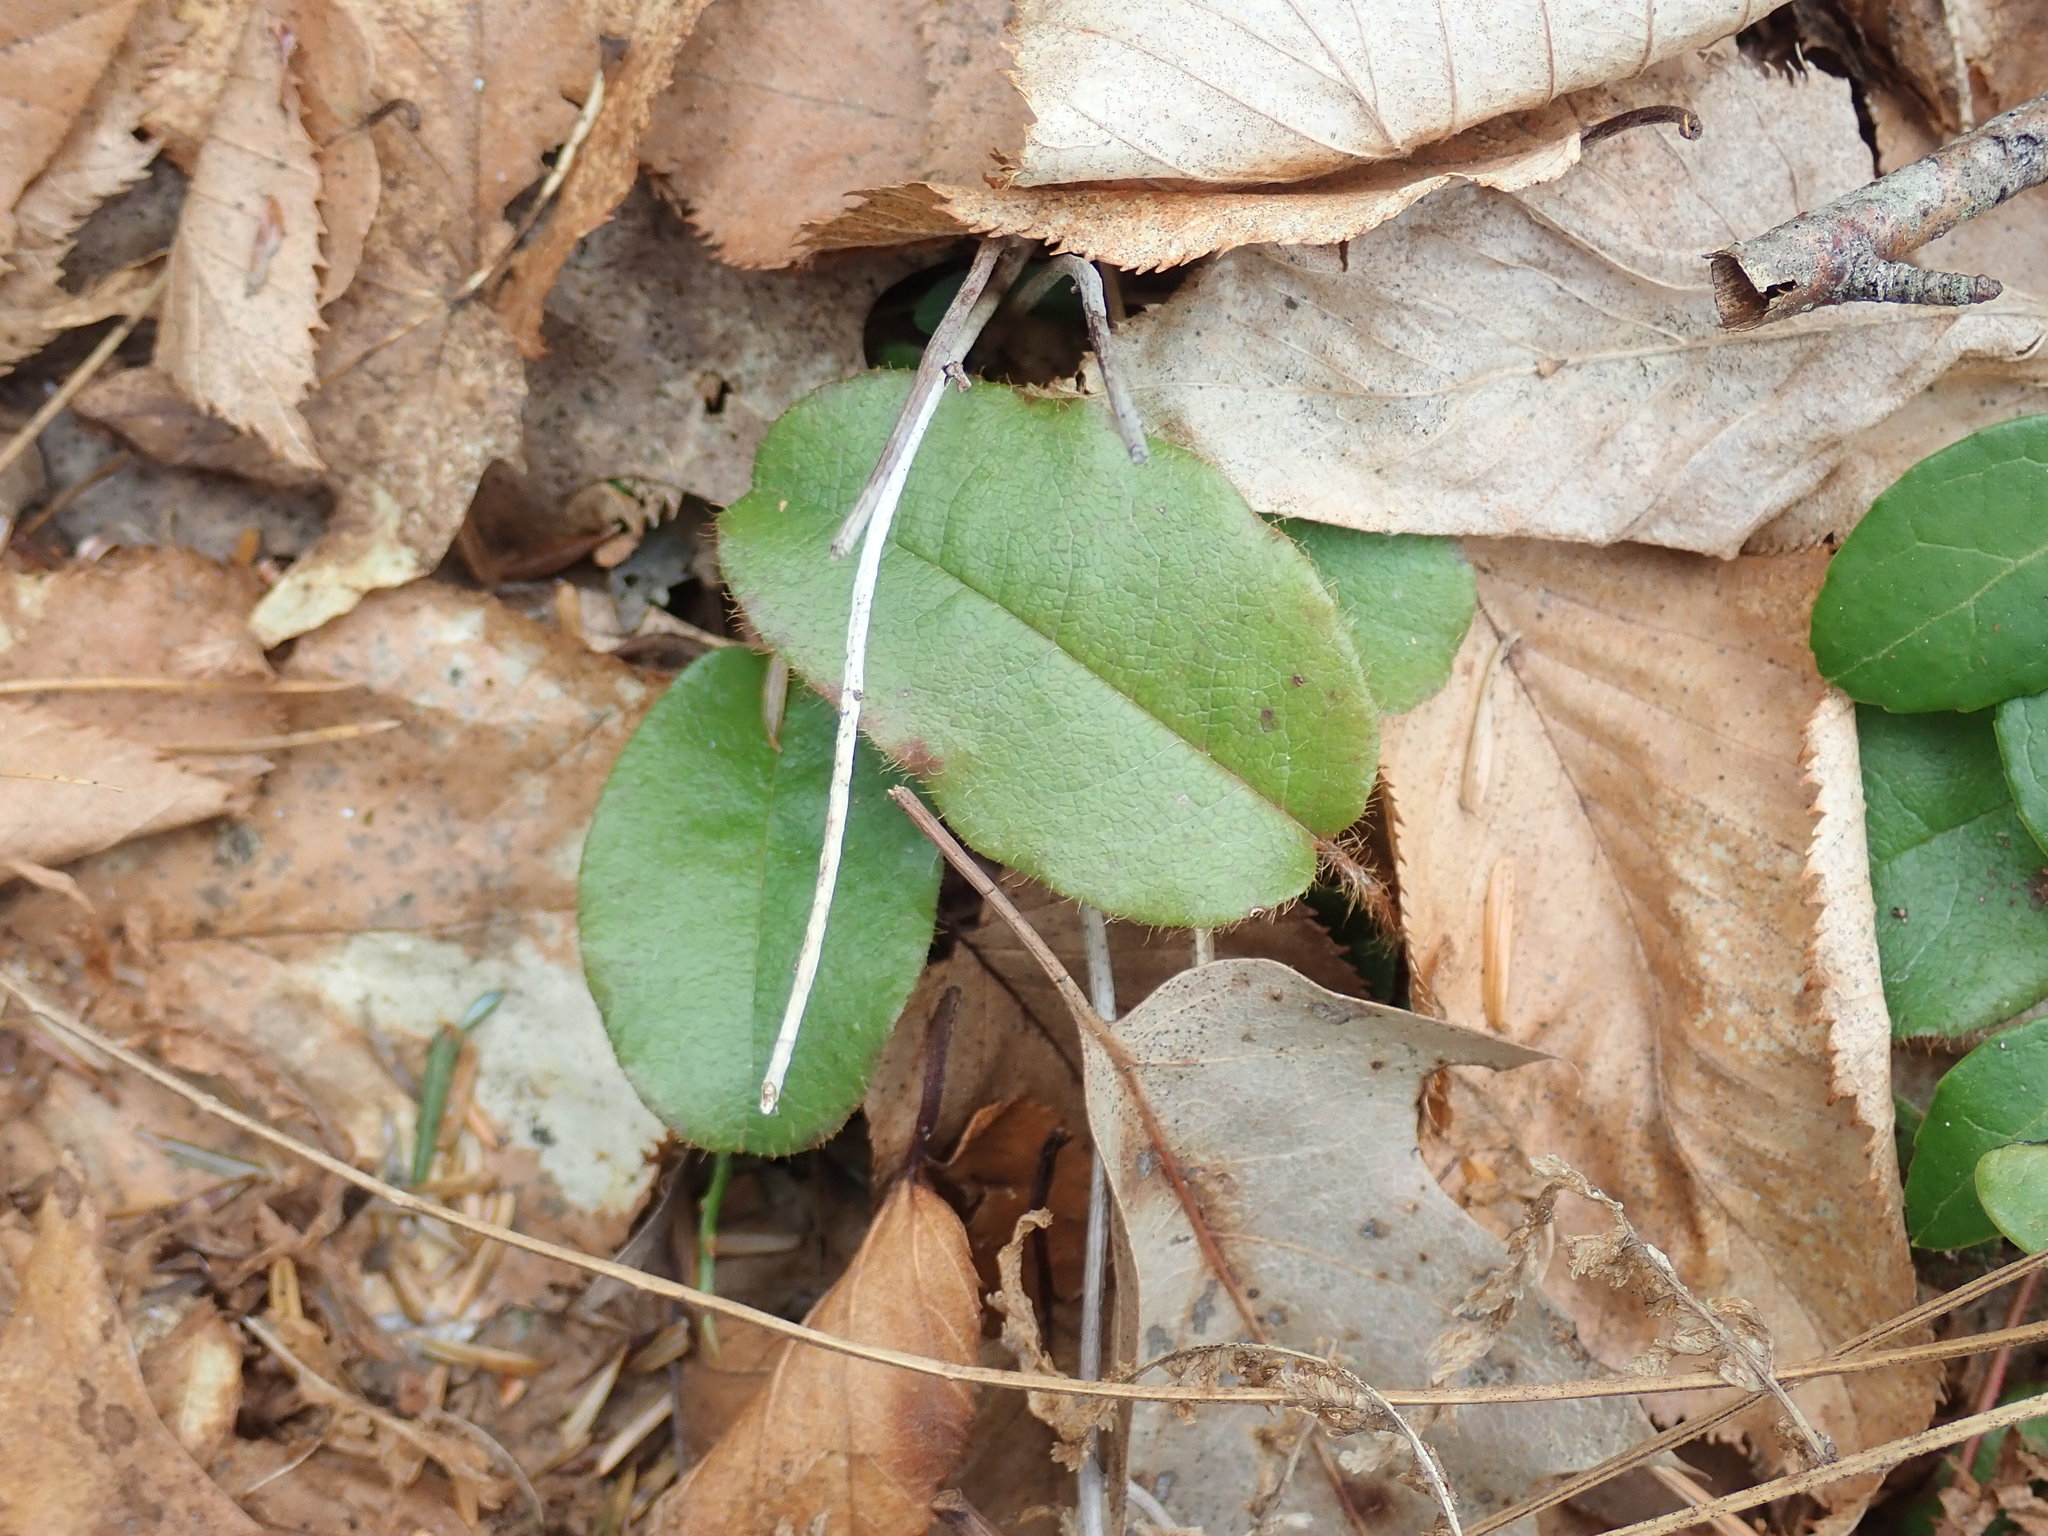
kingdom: Plantae
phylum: Tracheophyta
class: Magnoliopsida
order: Ericales
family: Ericaceae
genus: Epigaea
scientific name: Epigaea repens
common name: Gravelroot
